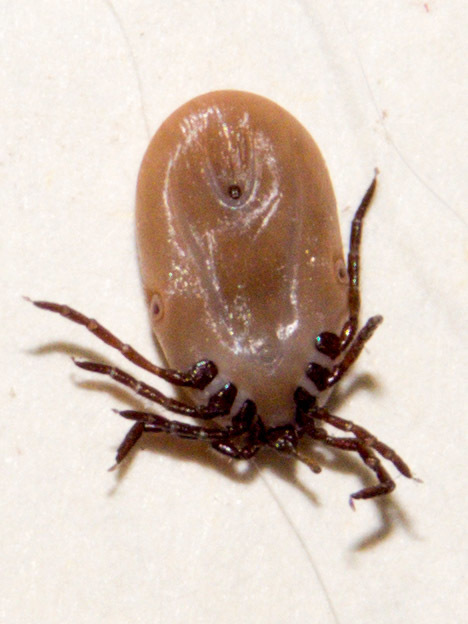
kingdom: Animalia
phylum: Arthropoda
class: Arachnida
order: Ixodida
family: Ixodidae
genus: Ixodes
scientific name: Ixodes scapularis
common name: Black legged tick
